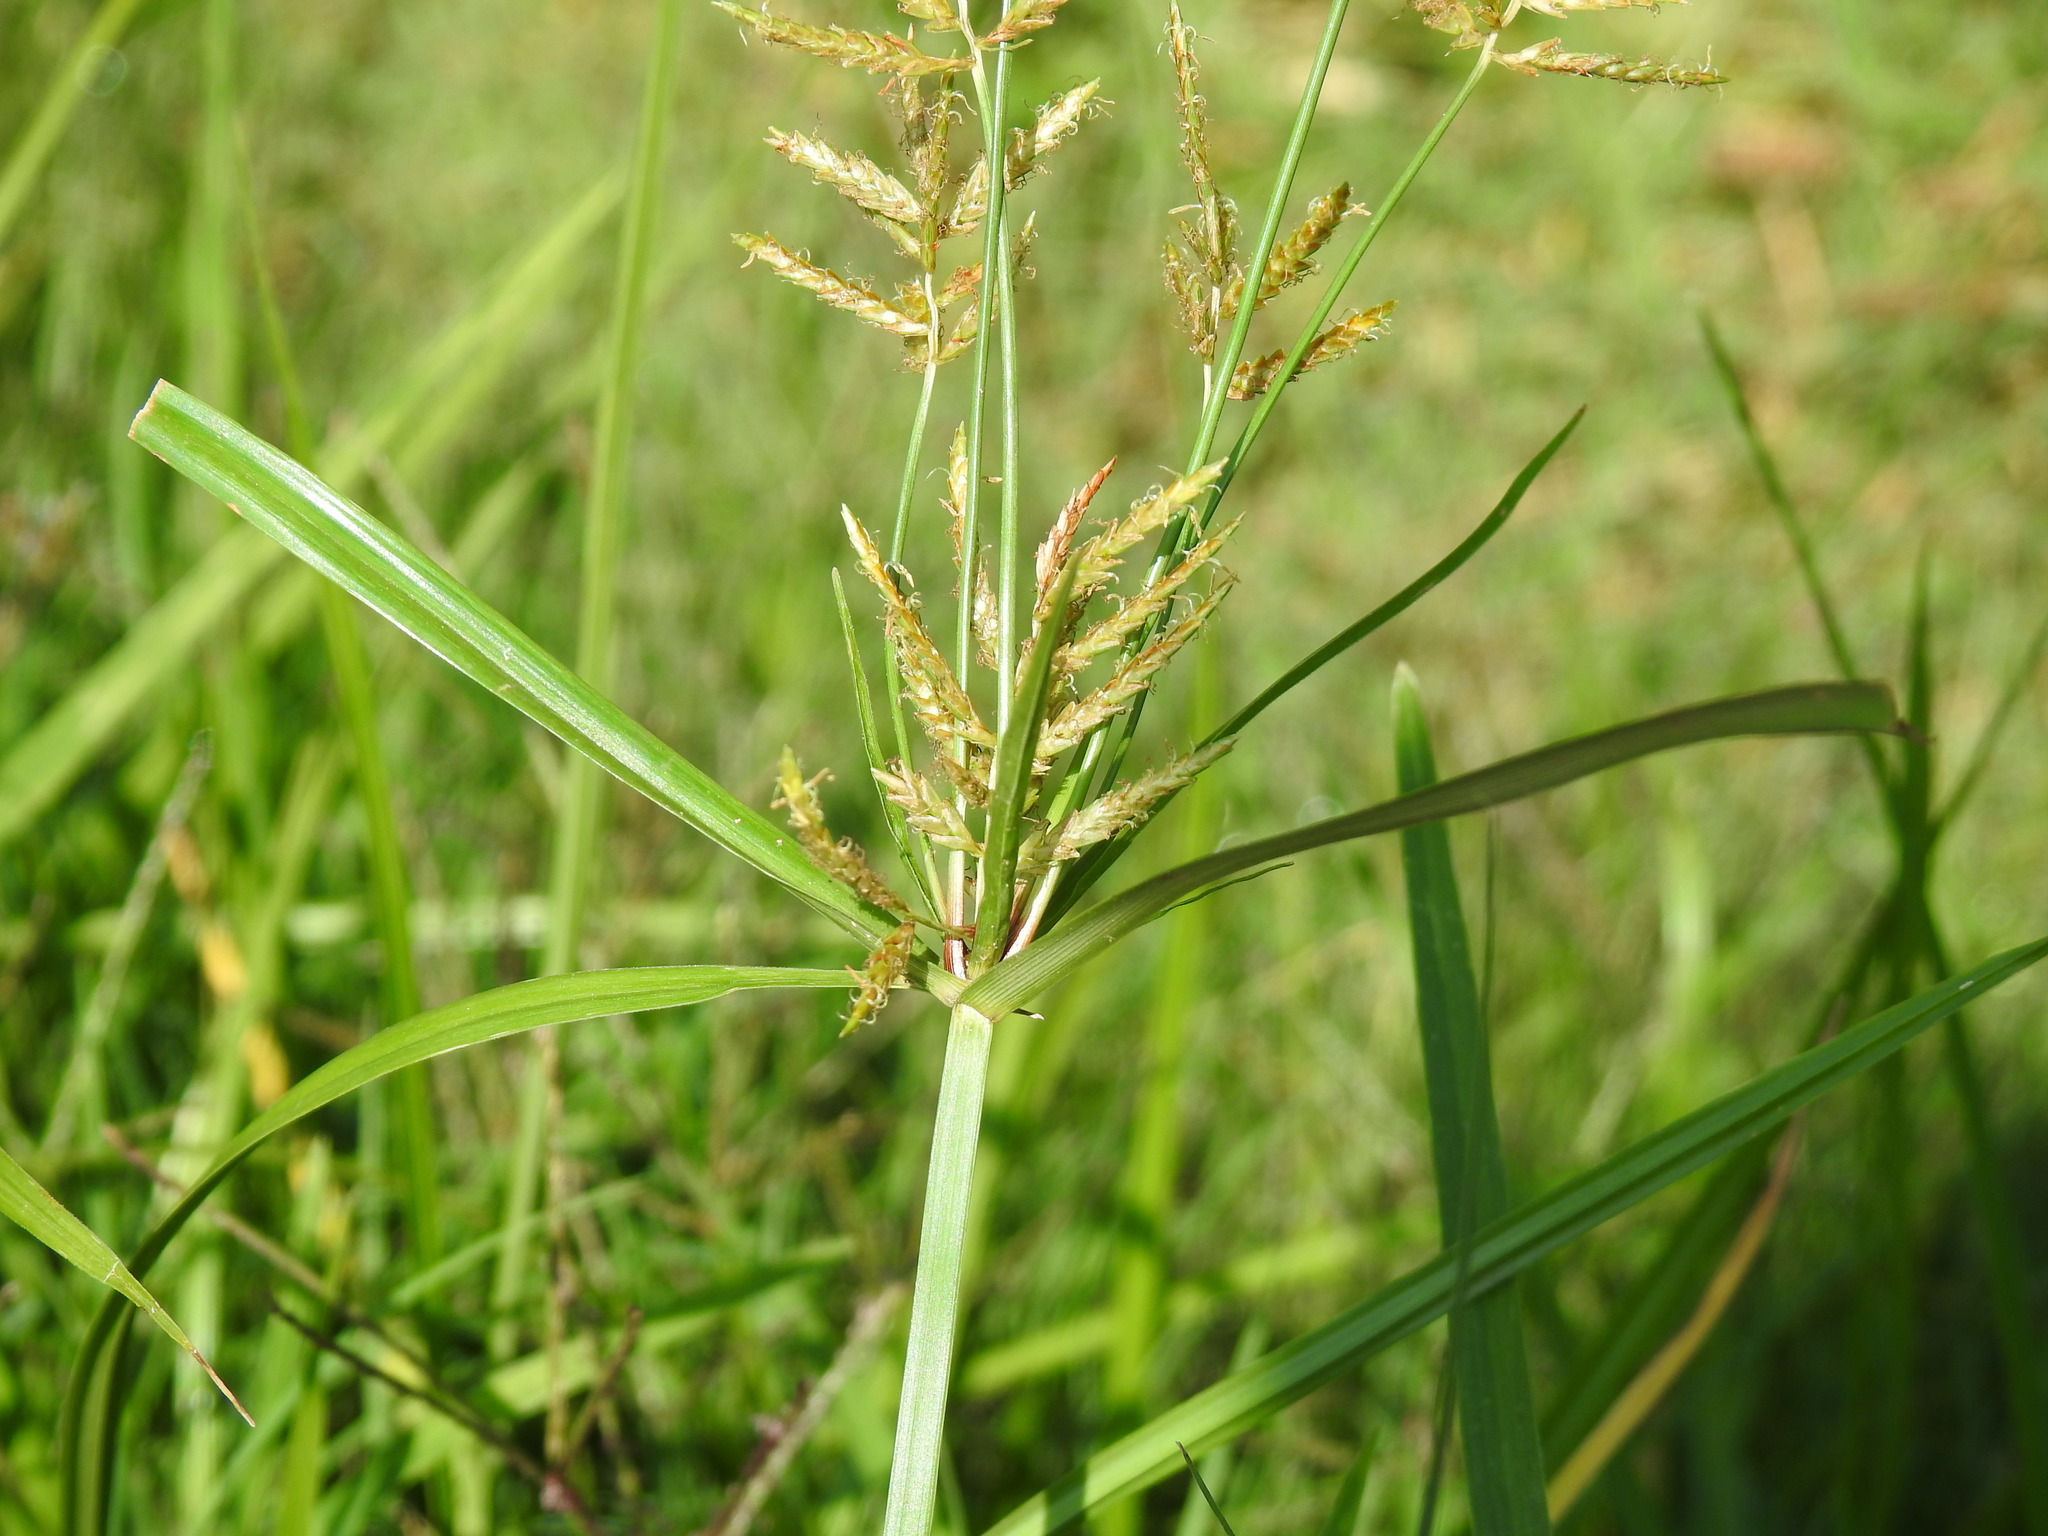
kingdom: Plantae
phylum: Tracheophyta
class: Liliopsida
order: Poales
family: Cyperaceae
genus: Cyperus
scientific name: Cyperus esculentus
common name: Yellow nutsedge
